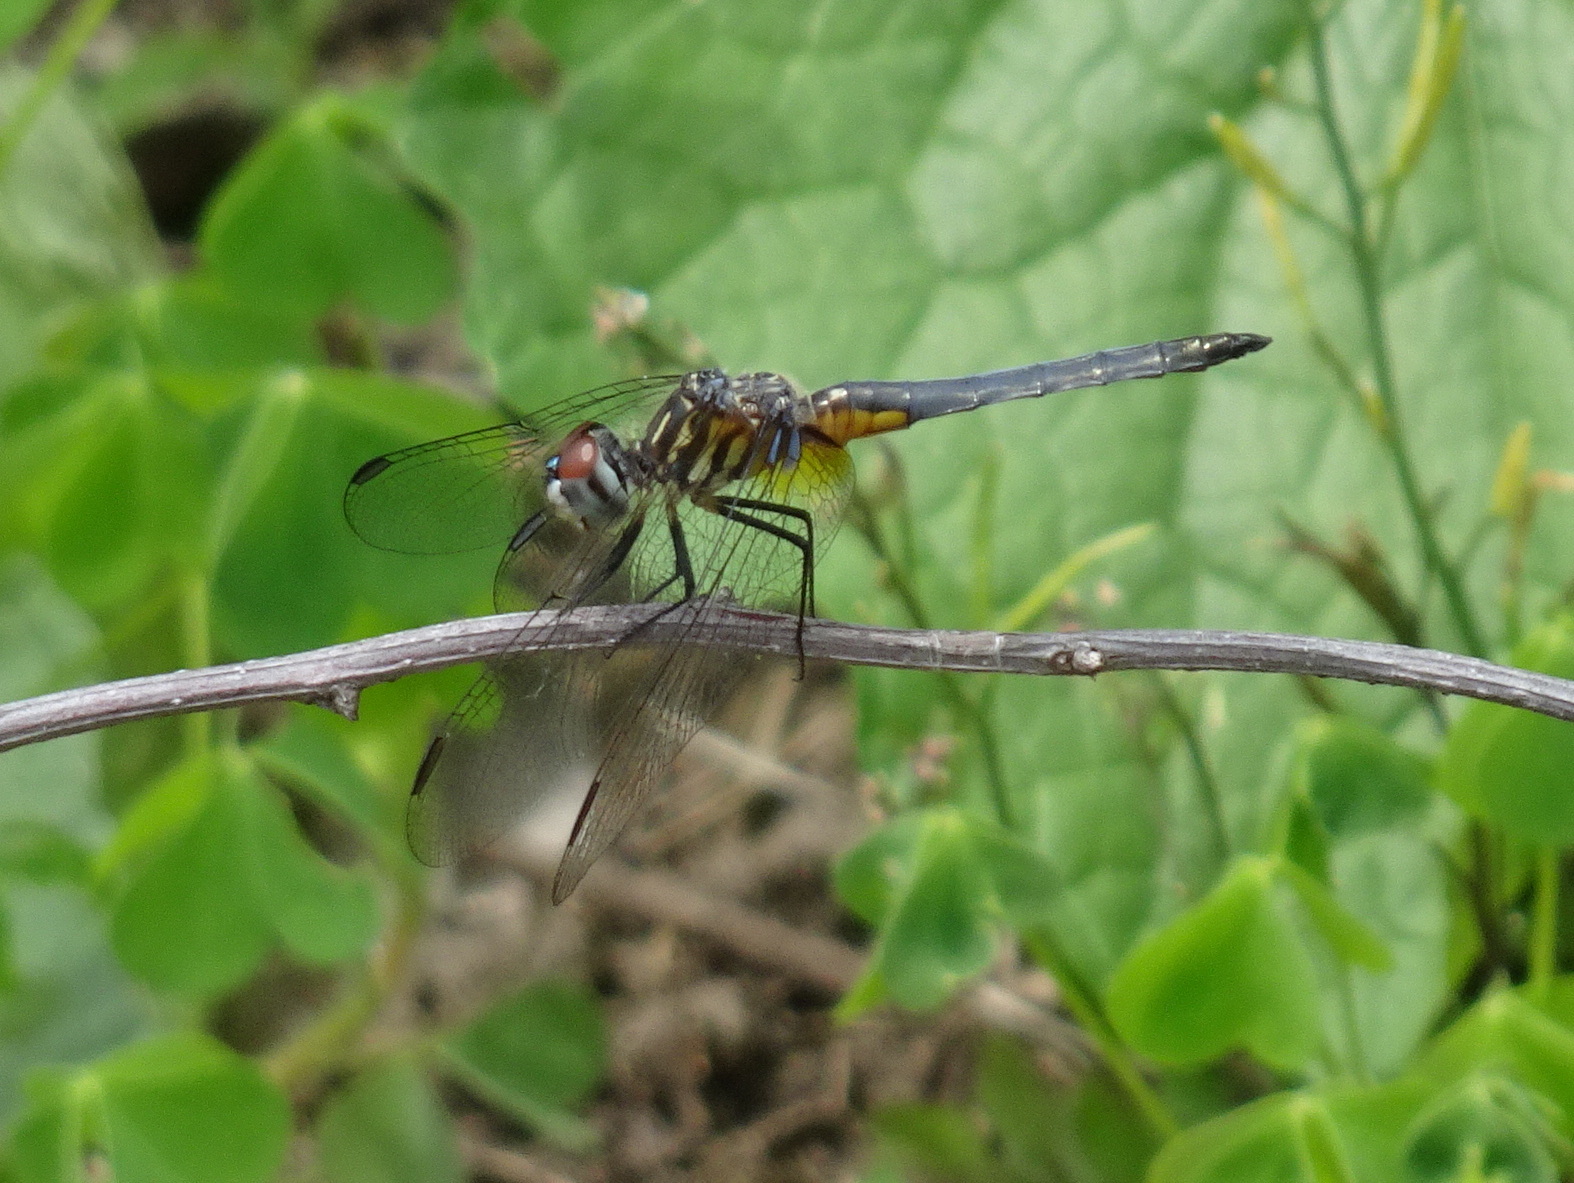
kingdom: Animalia
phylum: Arthropoda
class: Insecta
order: Odonata
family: Libellulidae
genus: Pachydiplax
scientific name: Pachydiplax longipennis
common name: Blue dasher
